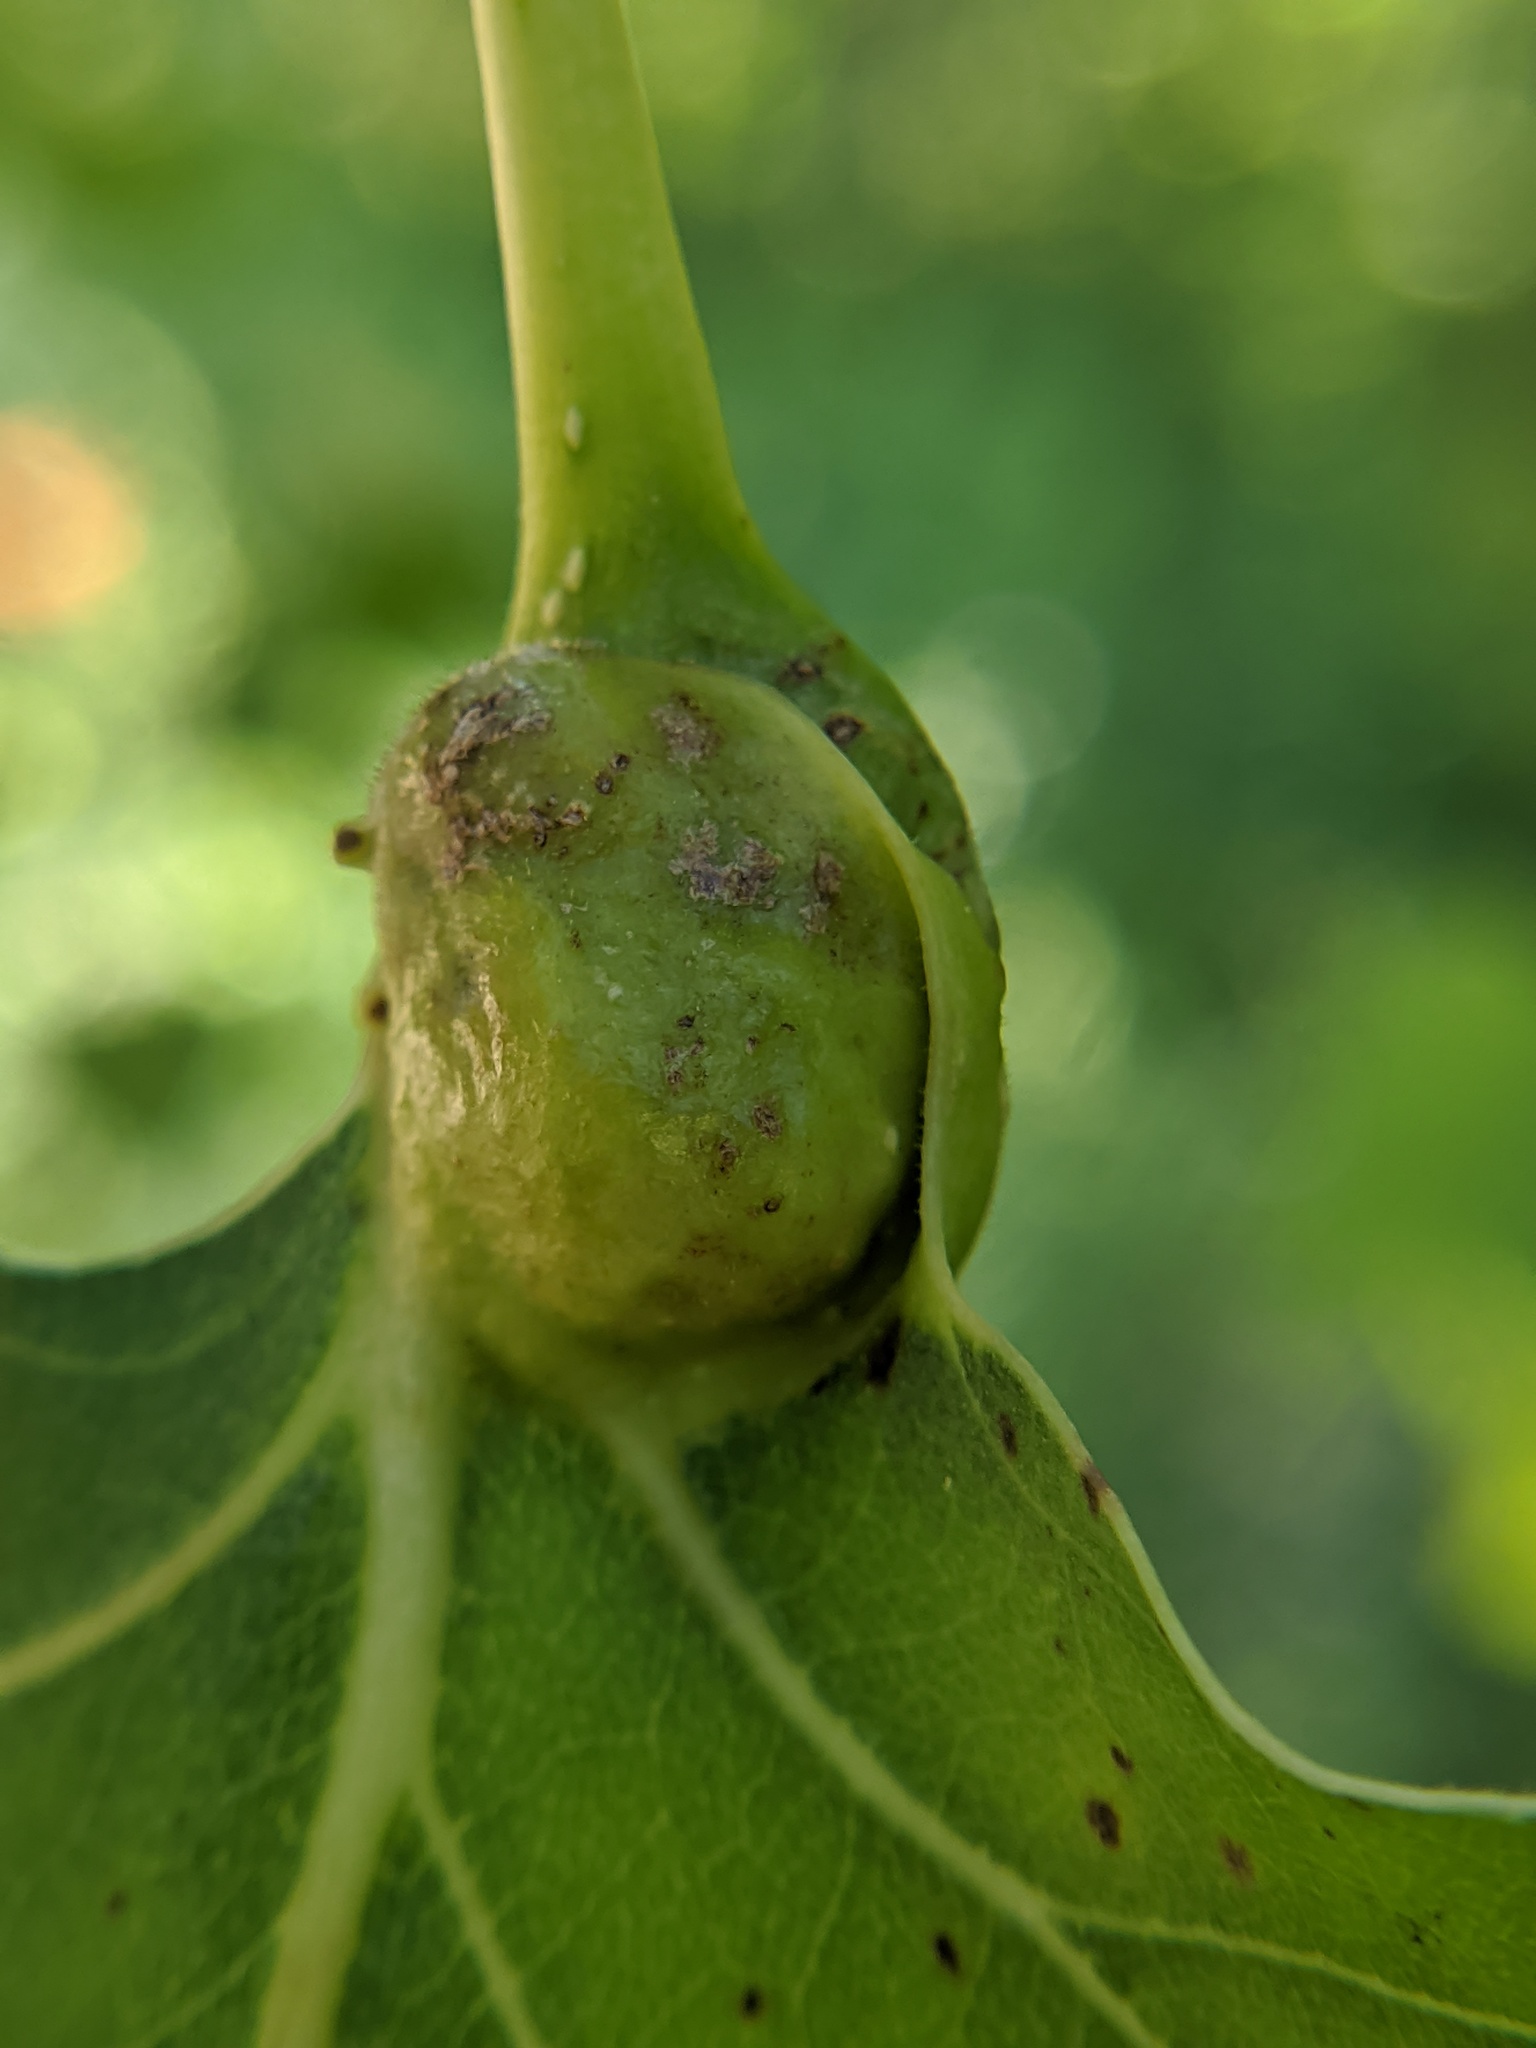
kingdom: Animalia
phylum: Arthropoda
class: Insecta
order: Hemiptera
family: Aphididae
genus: Pemphigus
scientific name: Pemphigus populicaulis
